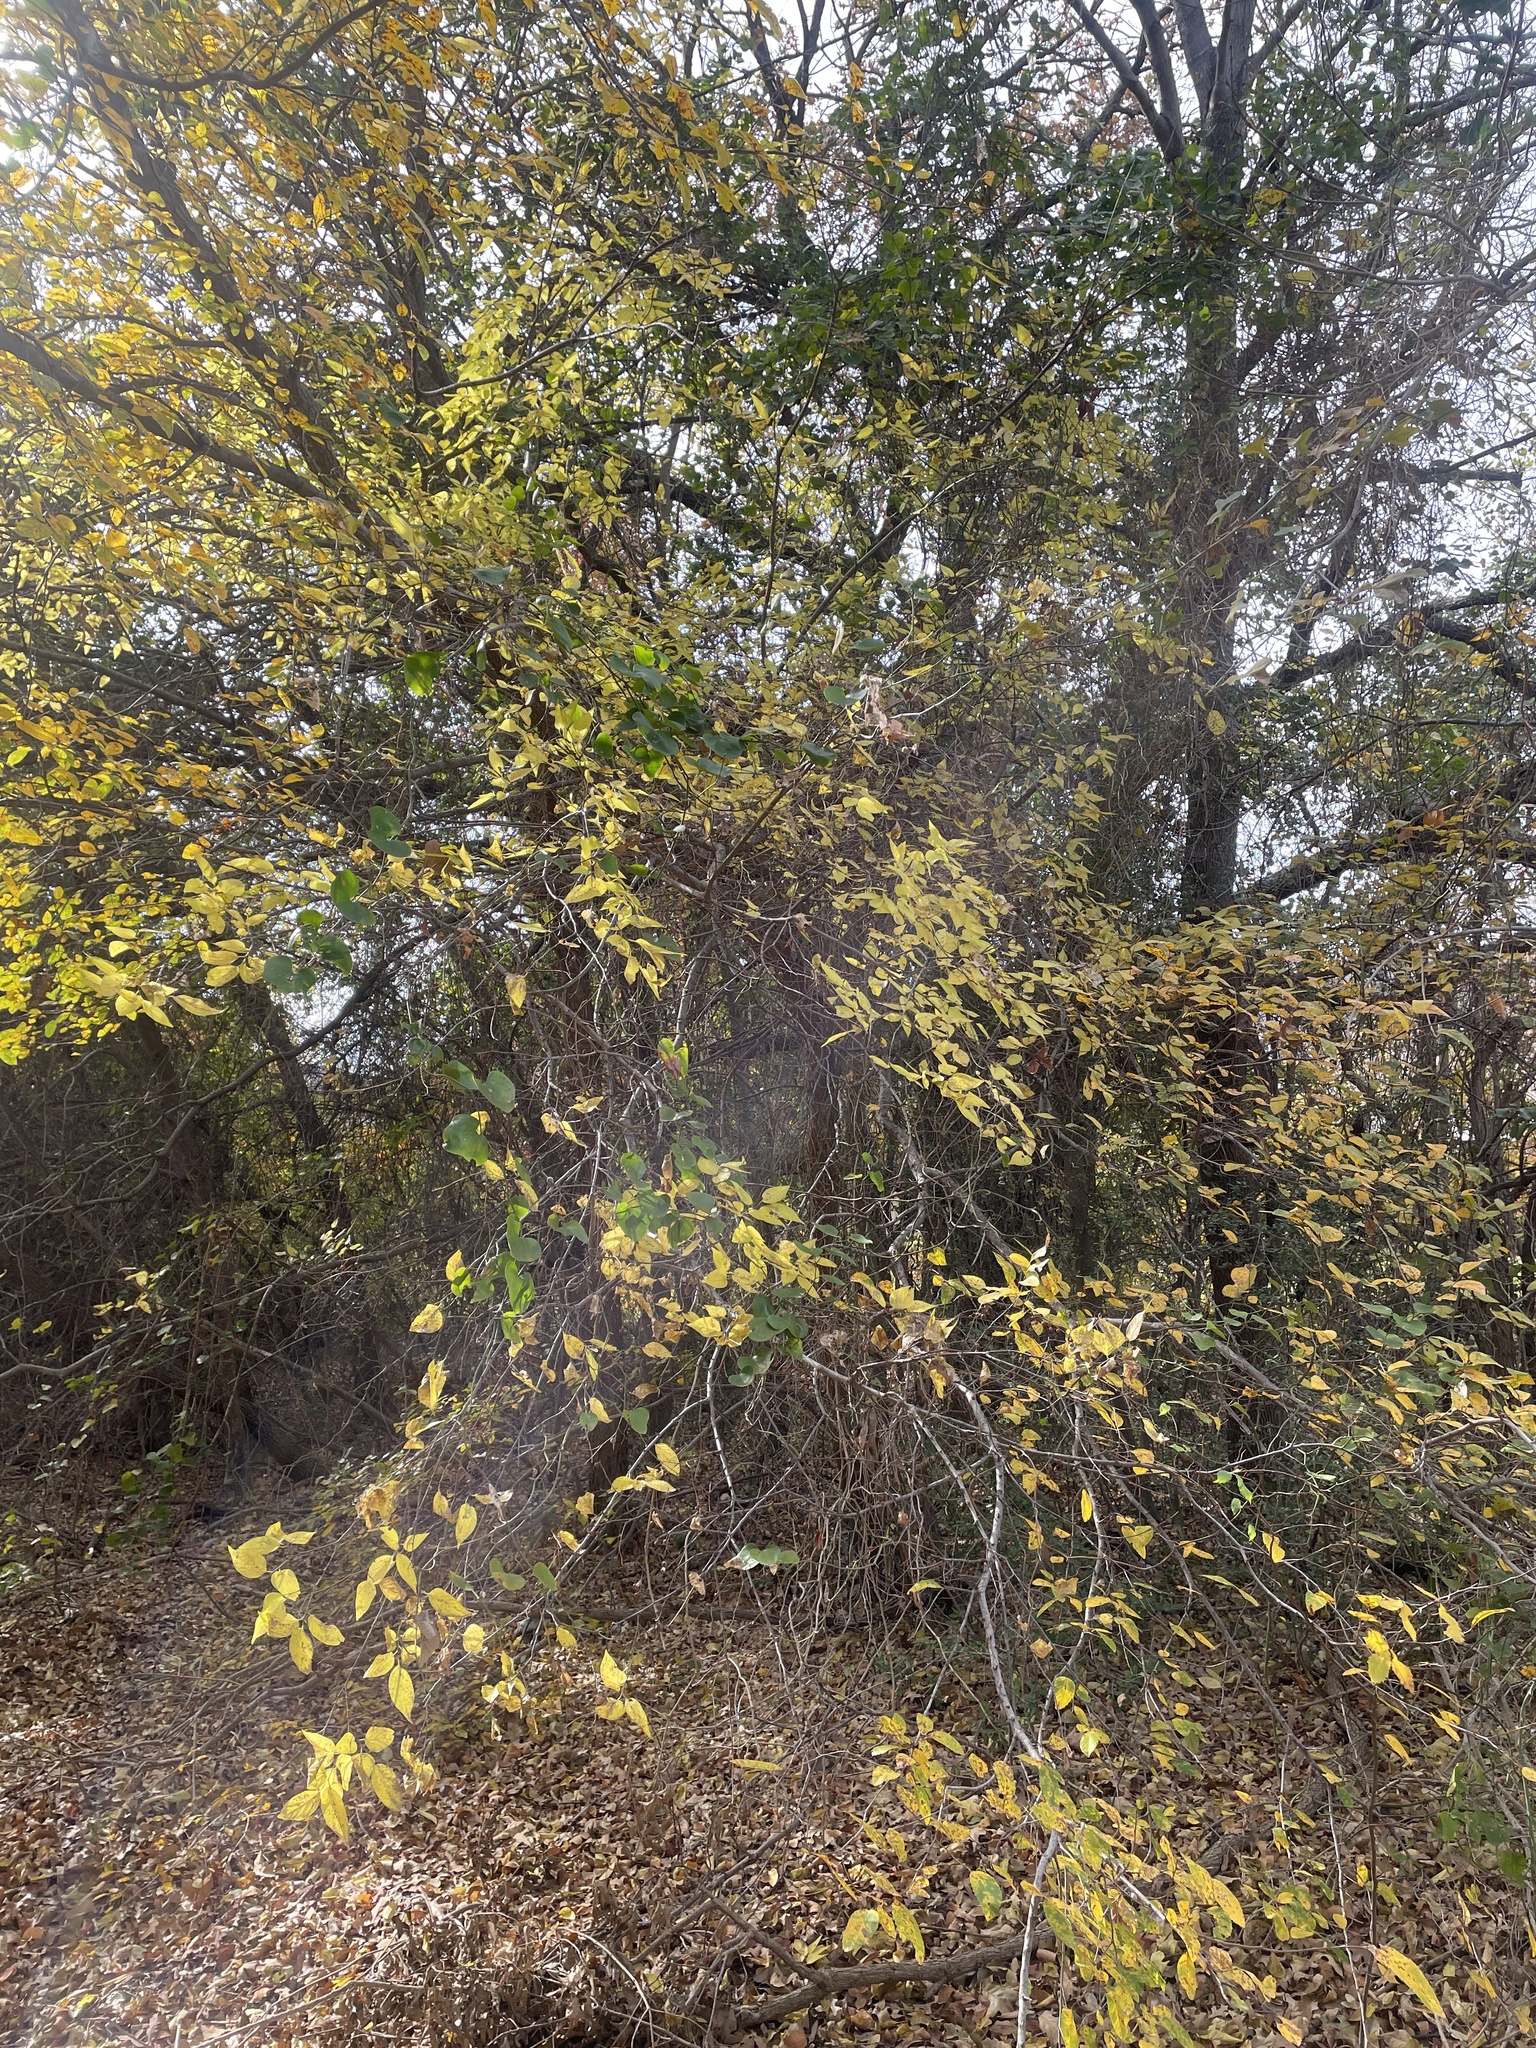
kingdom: Plantae
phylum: Tracheophyta
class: Magnoliopsida
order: Rosales
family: Cannabaceae
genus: Celtis
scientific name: Celtis laevigata
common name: Sugarberry
